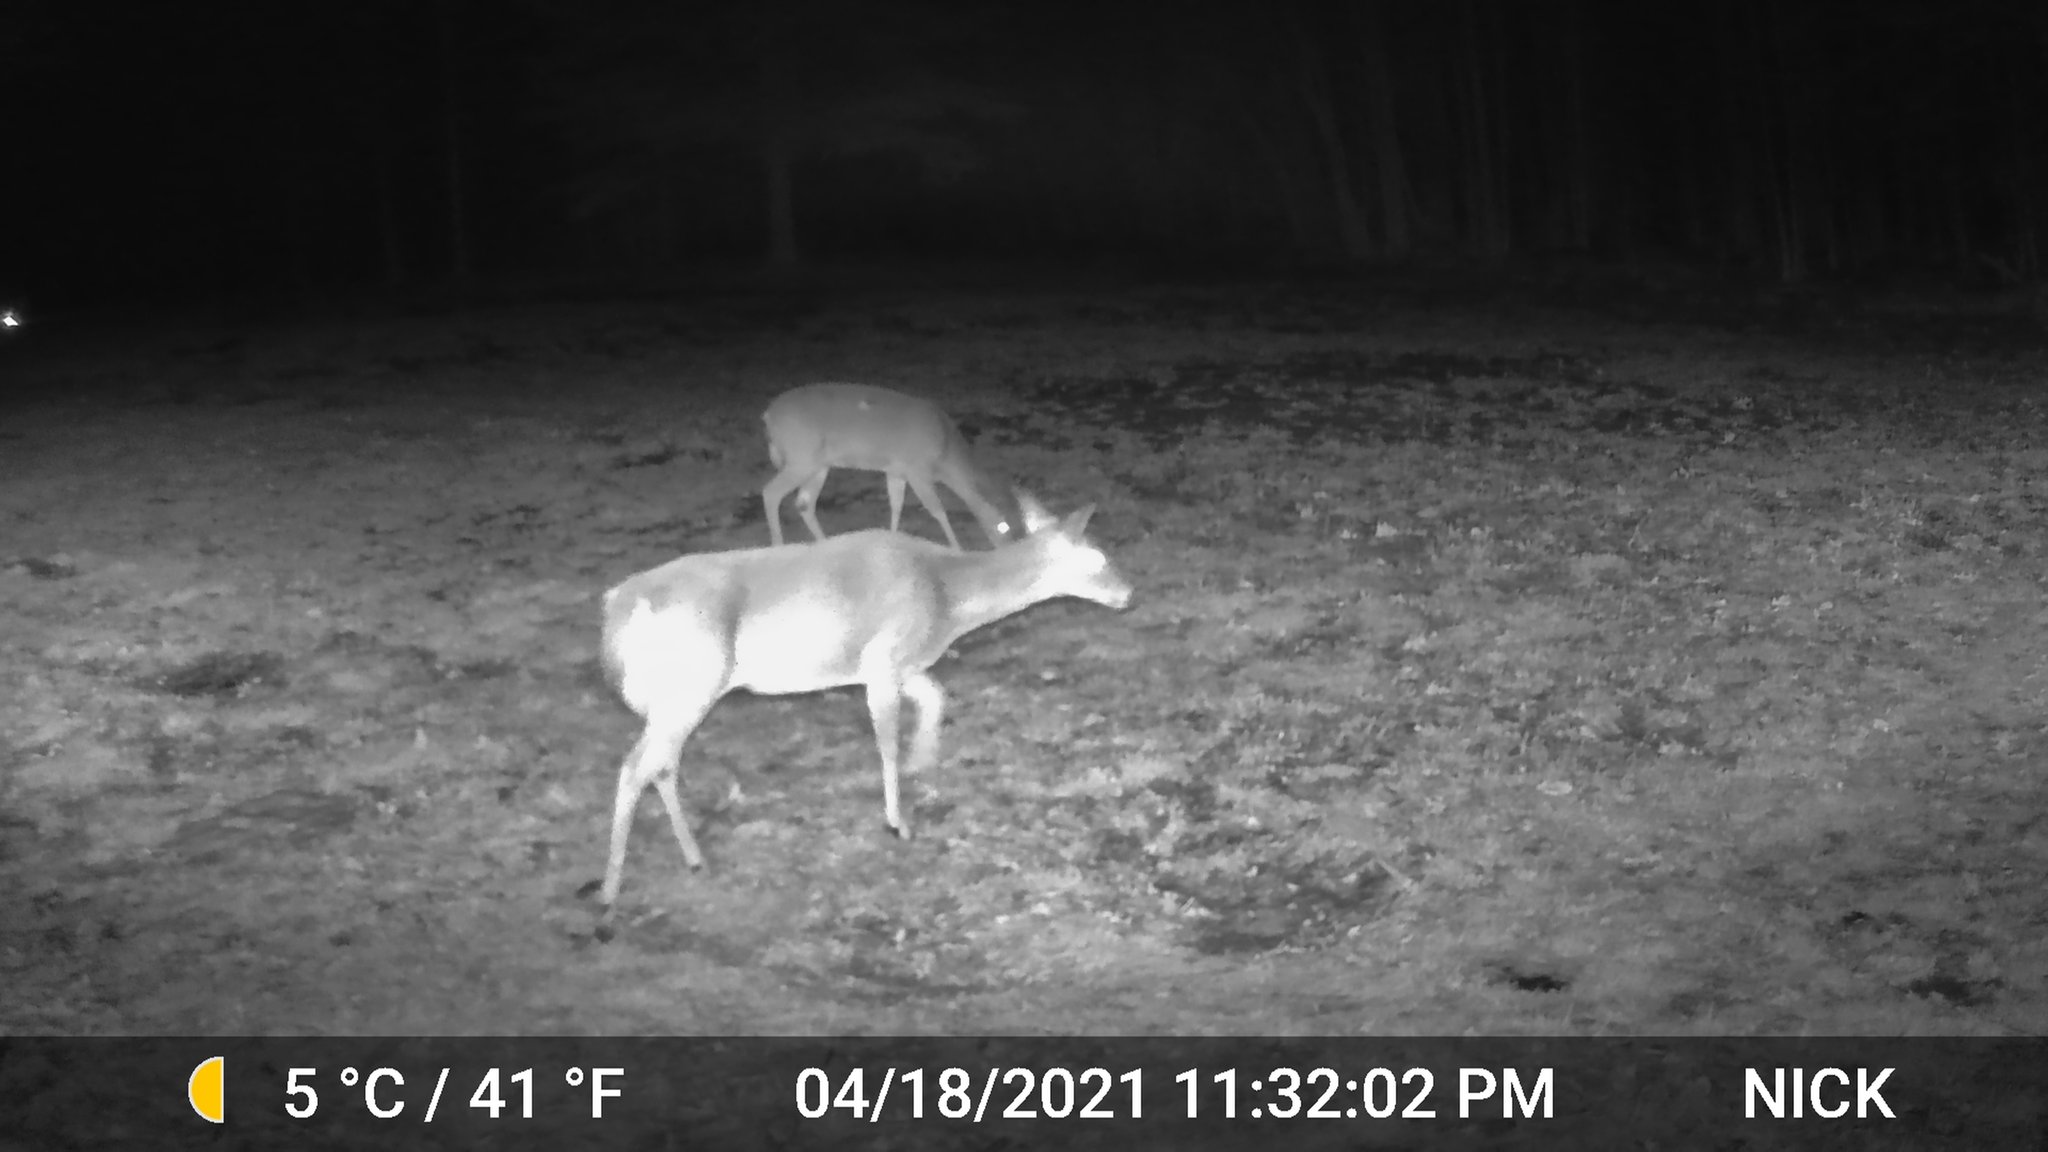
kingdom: Animalia
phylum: Chordata
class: Mammalia
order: Artiodactyla
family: Cervidae
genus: Odocoileus
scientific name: Odocoileus virginianus
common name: White-tailed deer
